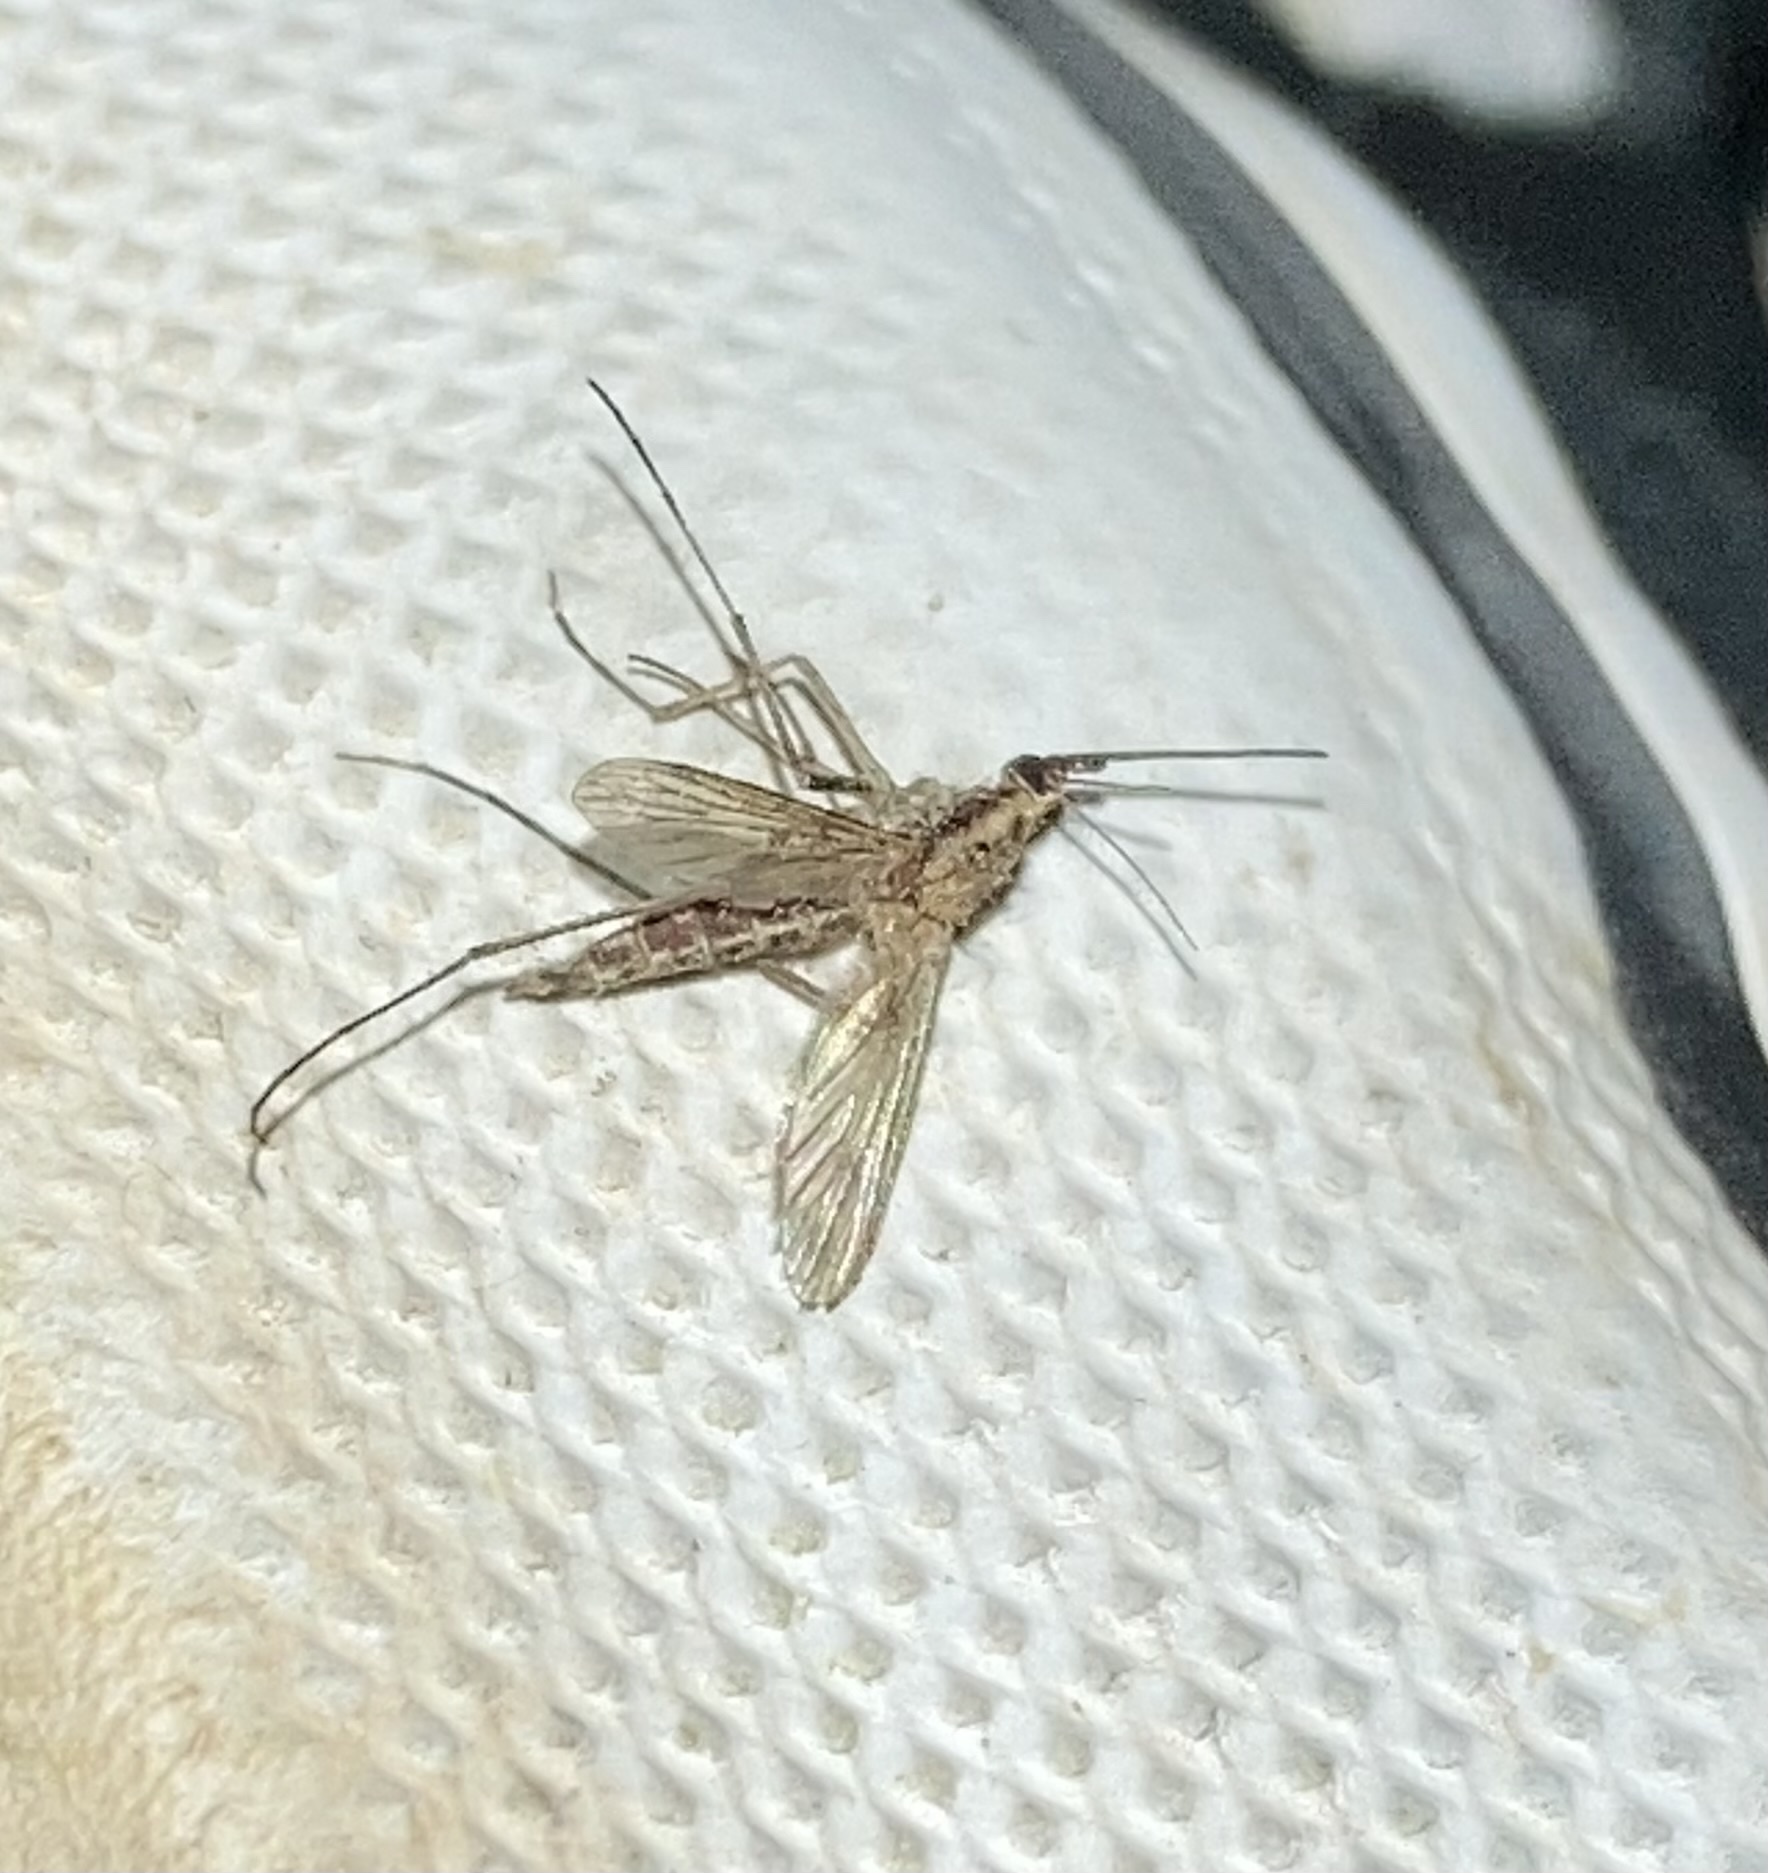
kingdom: Animalia
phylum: Arthropoda
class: Insecta
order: Diptera
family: Culicidae
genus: Aedes
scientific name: Aedes albifasciatus
